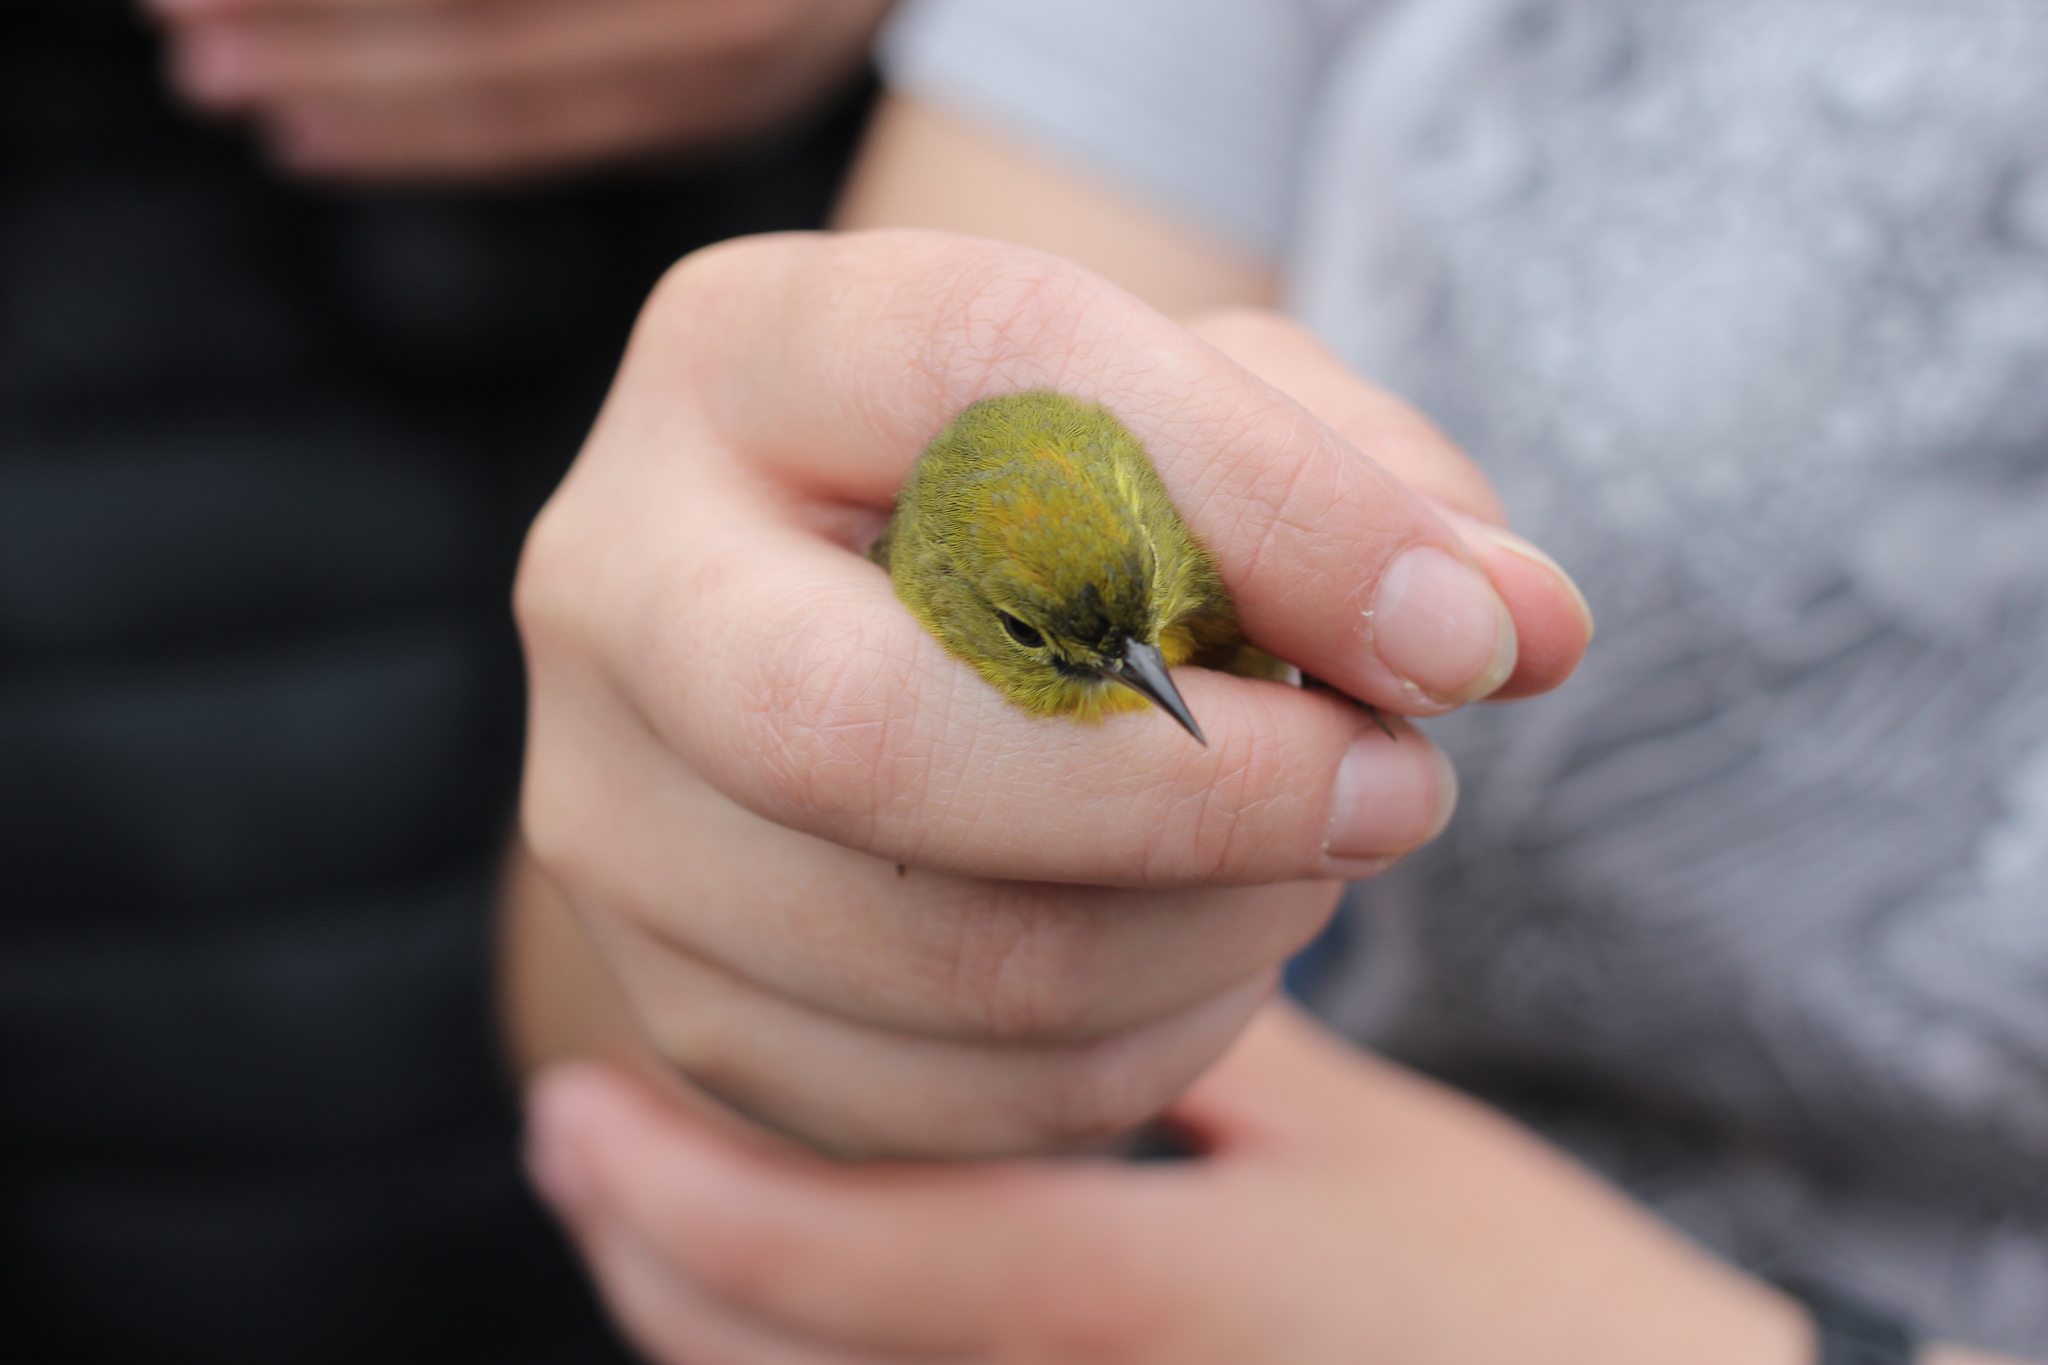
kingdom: Animalia
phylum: Chordata
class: Aves
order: Passeriformes
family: Parulidae
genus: Leiothlypis
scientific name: Leiothlypis celata
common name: Orange-crowned warbler
